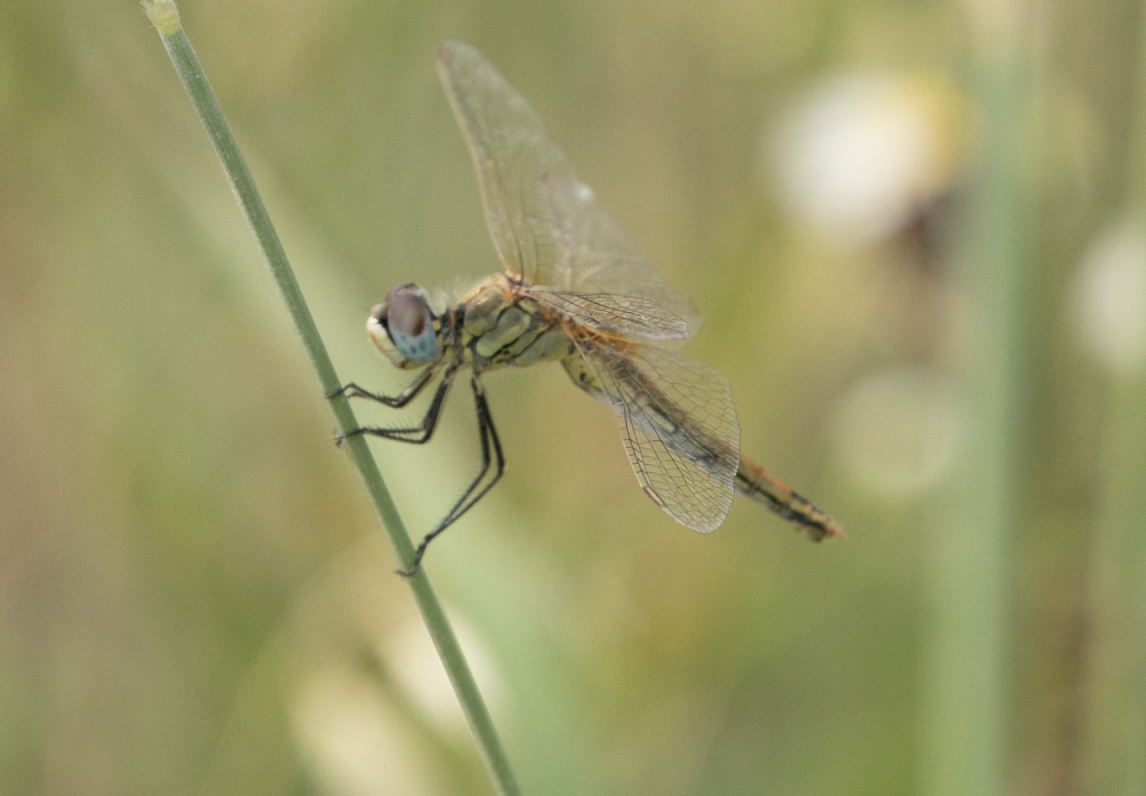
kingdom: Animalia
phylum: Arthropoda
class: Insecta
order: Odonata
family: Libellulidae
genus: Sympetrum
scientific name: Sympetrum fonscolombii
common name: Red-veined darter
